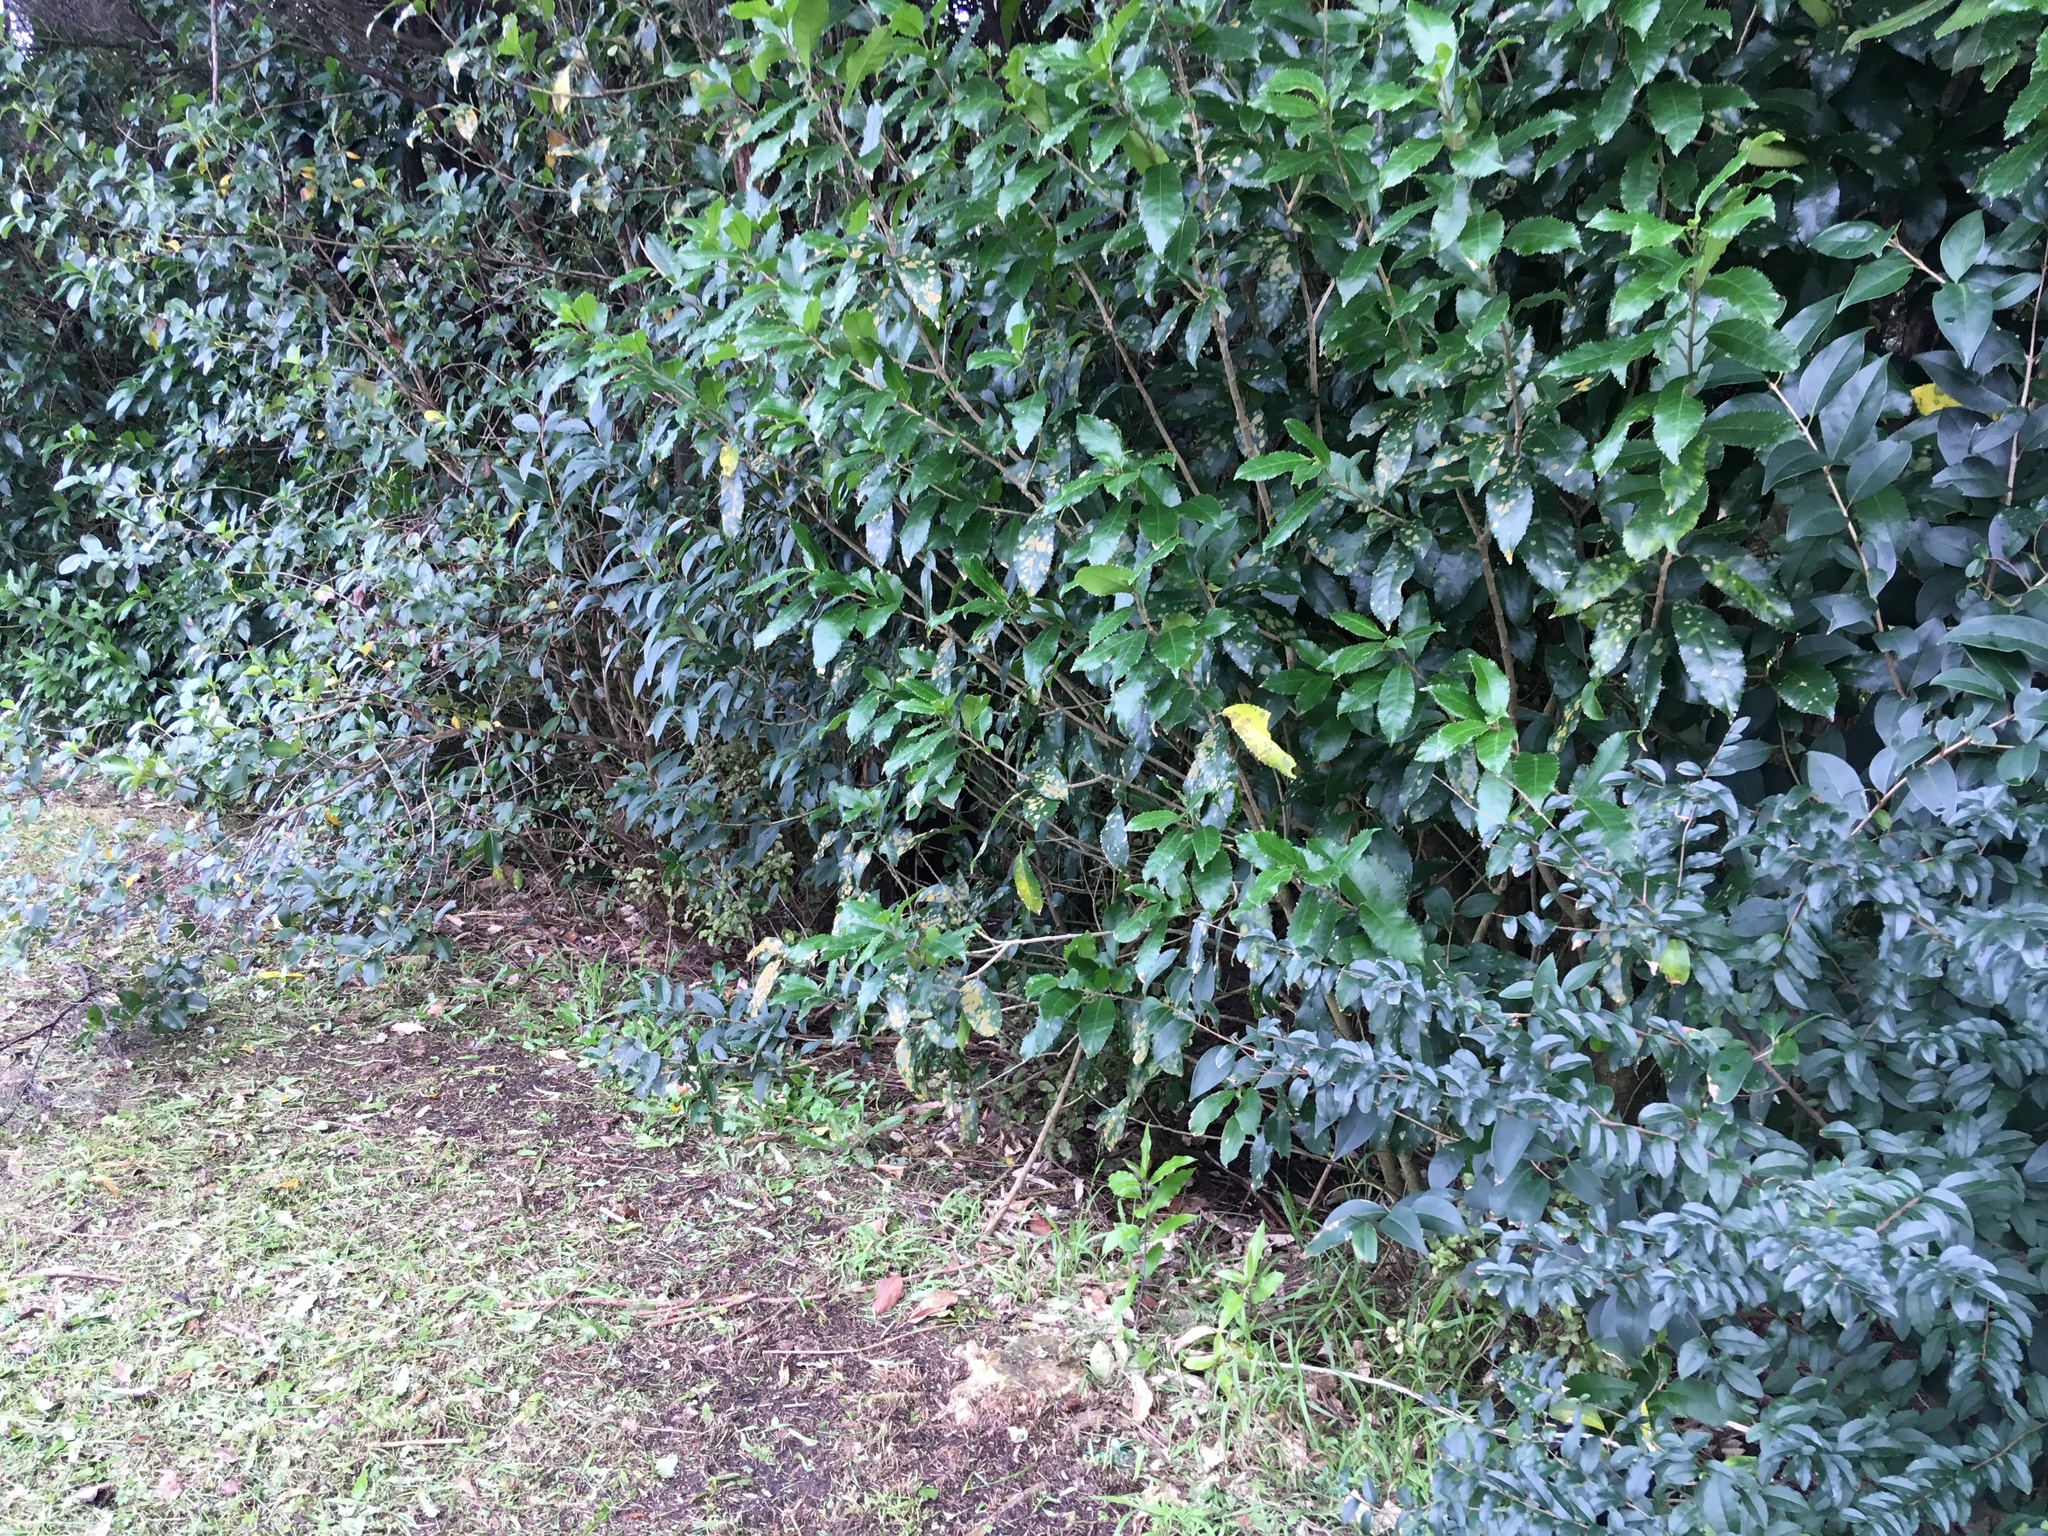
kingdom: Plantae
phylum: Tracheophyta
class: Magnoliopsida
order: Malpighiales
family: Violaceae
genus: Melicytus
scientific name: Melicytus ramiflorus
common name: Mahoe
